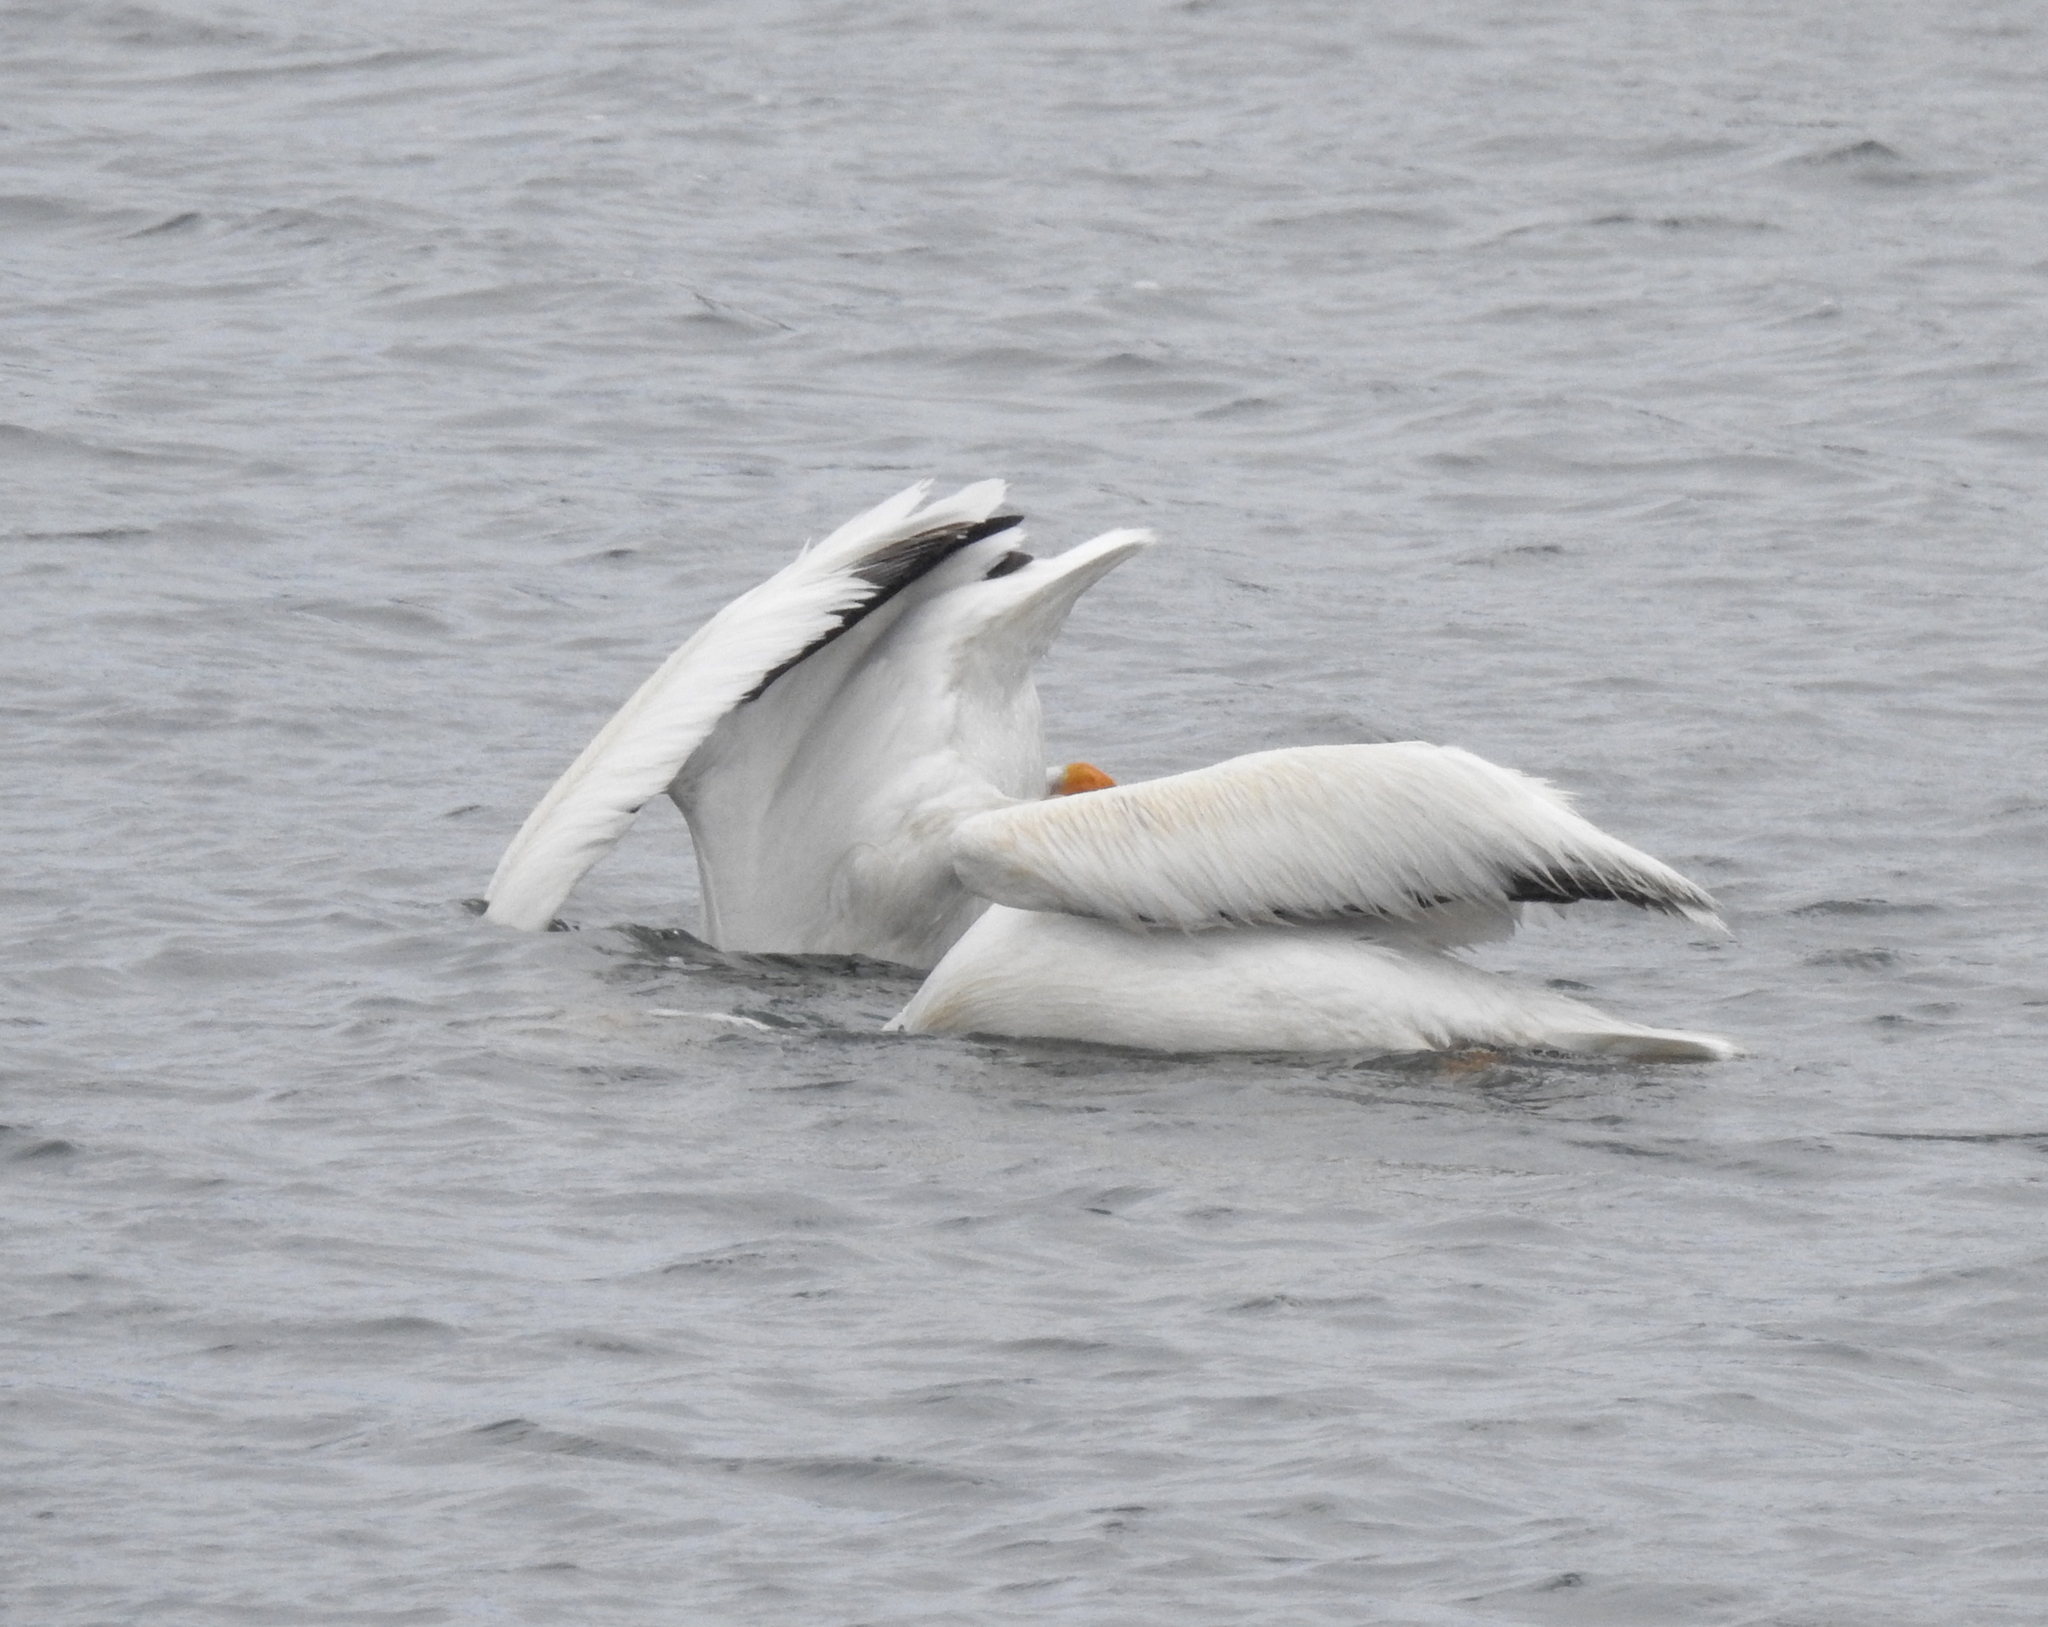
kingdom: Animalia
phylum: Chordata
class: Aves
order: Pelecaniformes
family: Pelecanidae
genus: Pelecanus
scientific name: Pelecanus erythrorhynchos
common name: American white pelican
